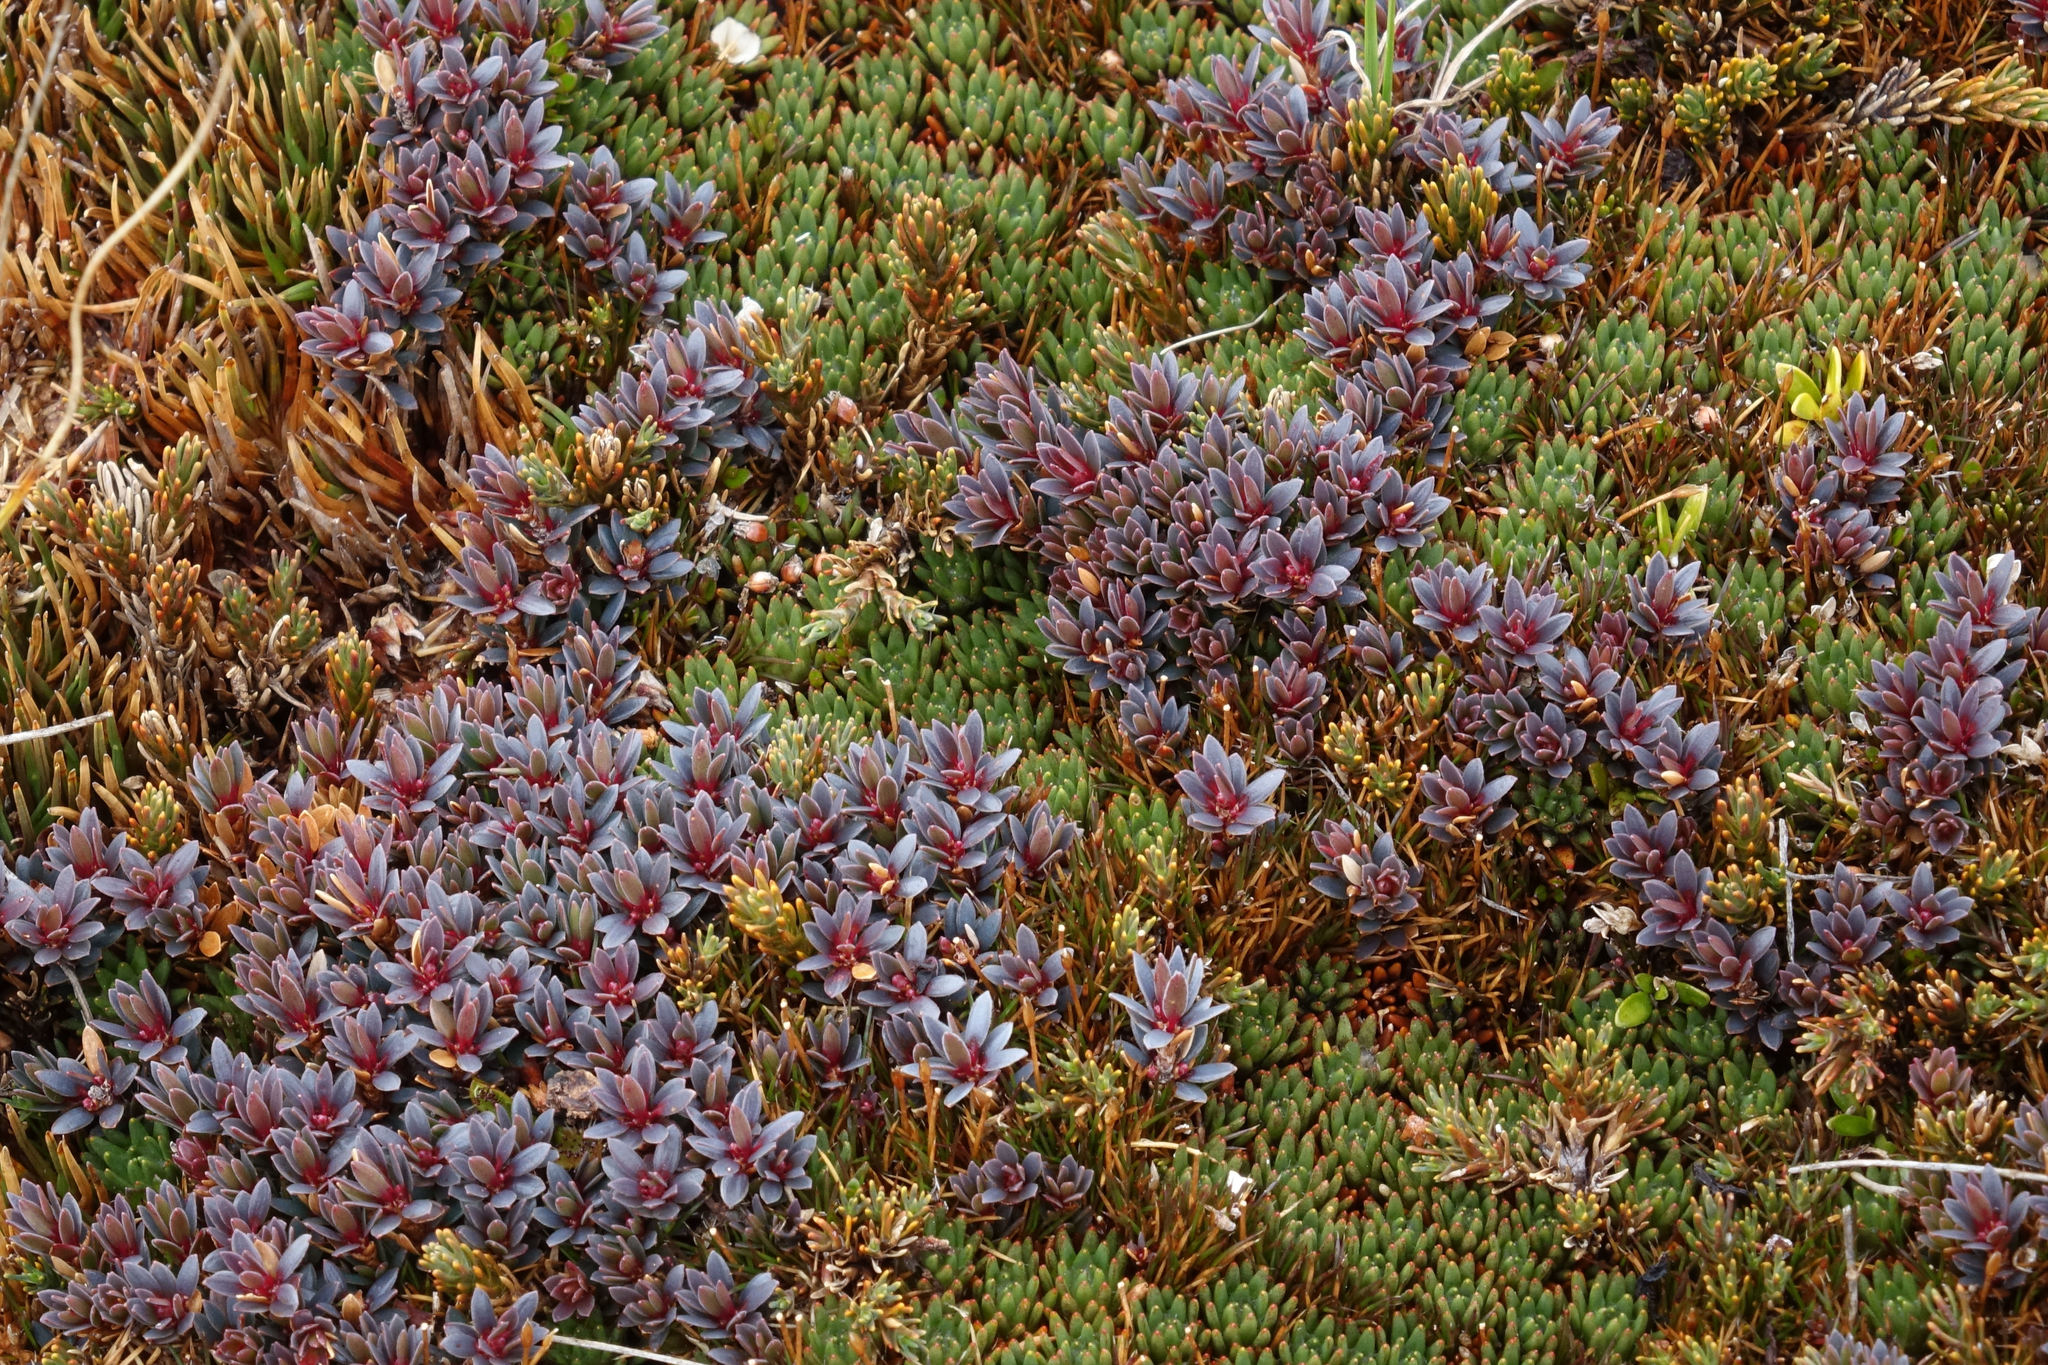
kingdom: Plantae
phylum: Tracheophyta
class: Magnoliopsida
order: Ericales
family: Ericaceae
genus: Pentachondra
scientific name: Pentachondra pumila
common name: Carpet-heath
